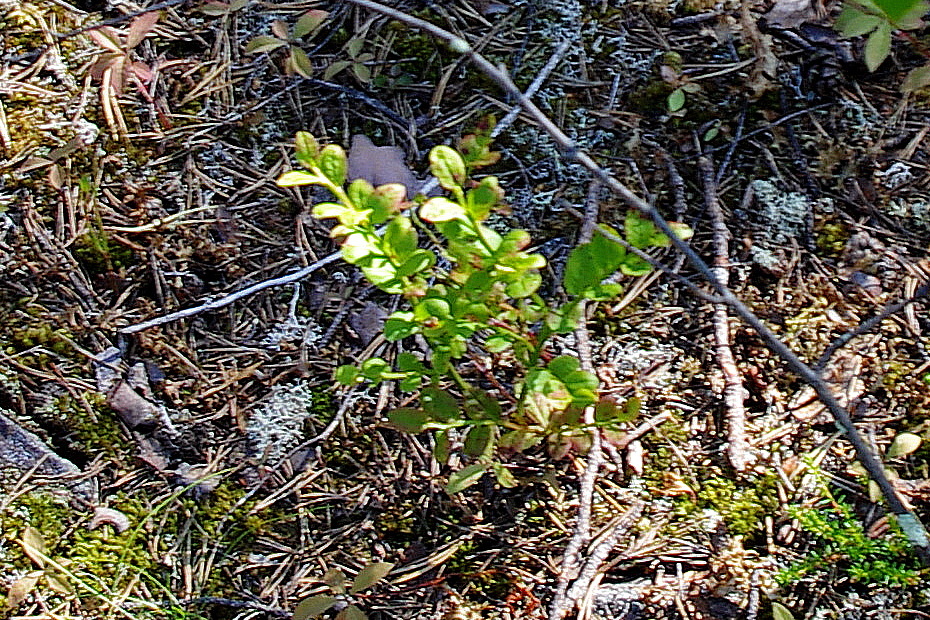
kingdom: Plantae
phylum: Tracheophyta
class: Magnoliopsida
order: Ericales
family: Ericaceae
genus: Vaccinium
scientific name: Vaccinium myrtillus
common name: Bilberry
